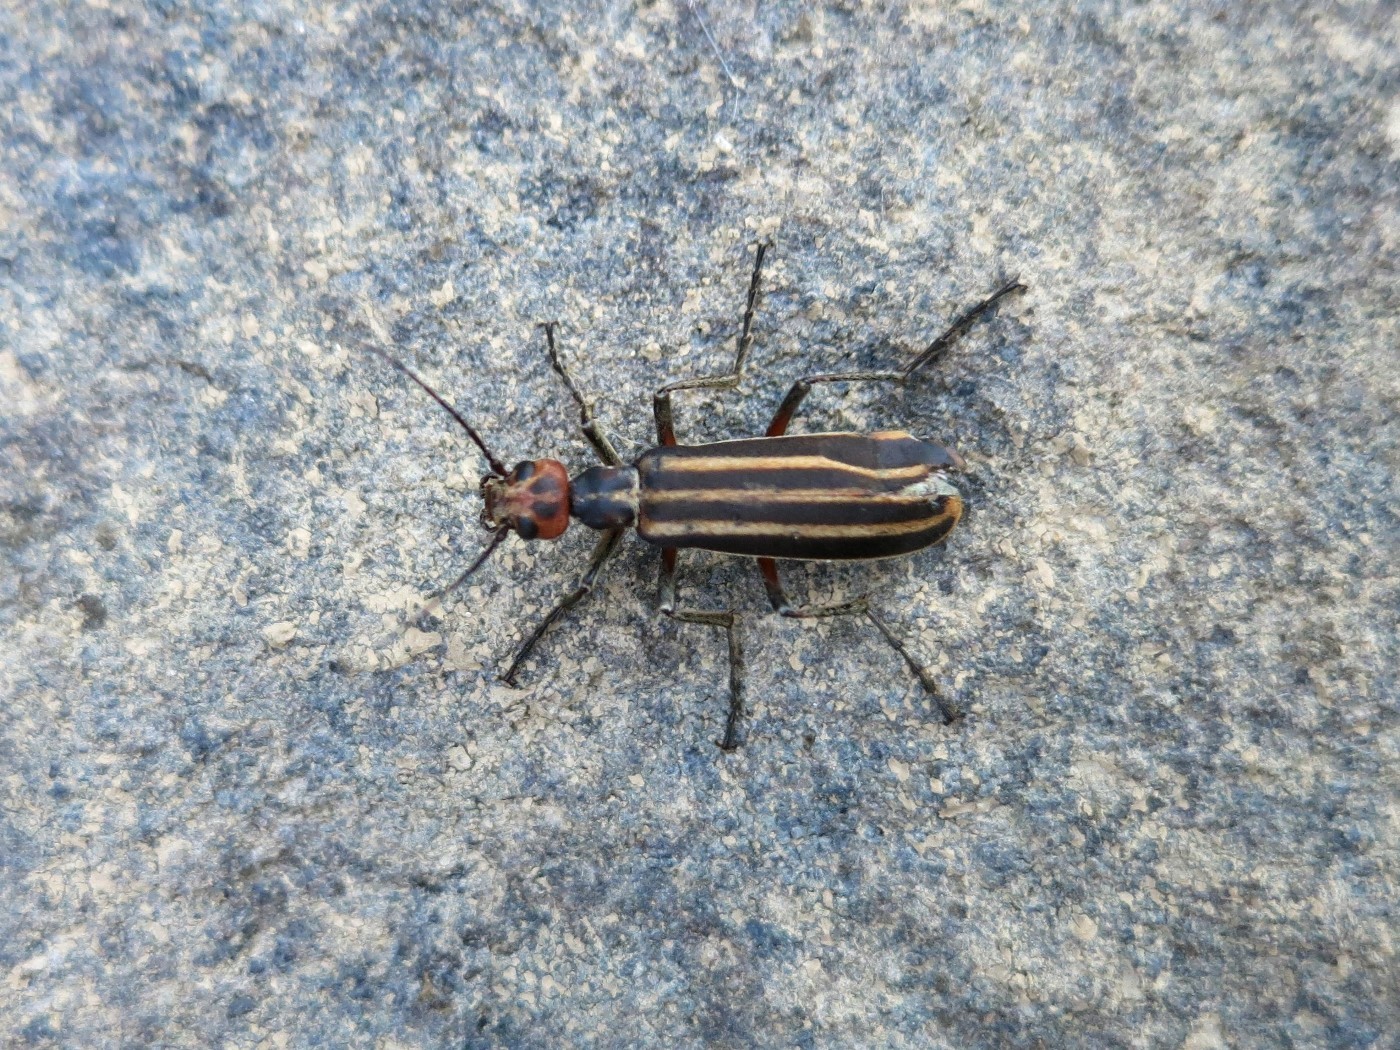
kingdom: Animalia
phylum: Arthropoda
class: Insecta
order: Coleoptera
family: Meloidae
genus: Epicauta
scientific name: Epicauta vittata
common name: Old-fashioned potato beetle
